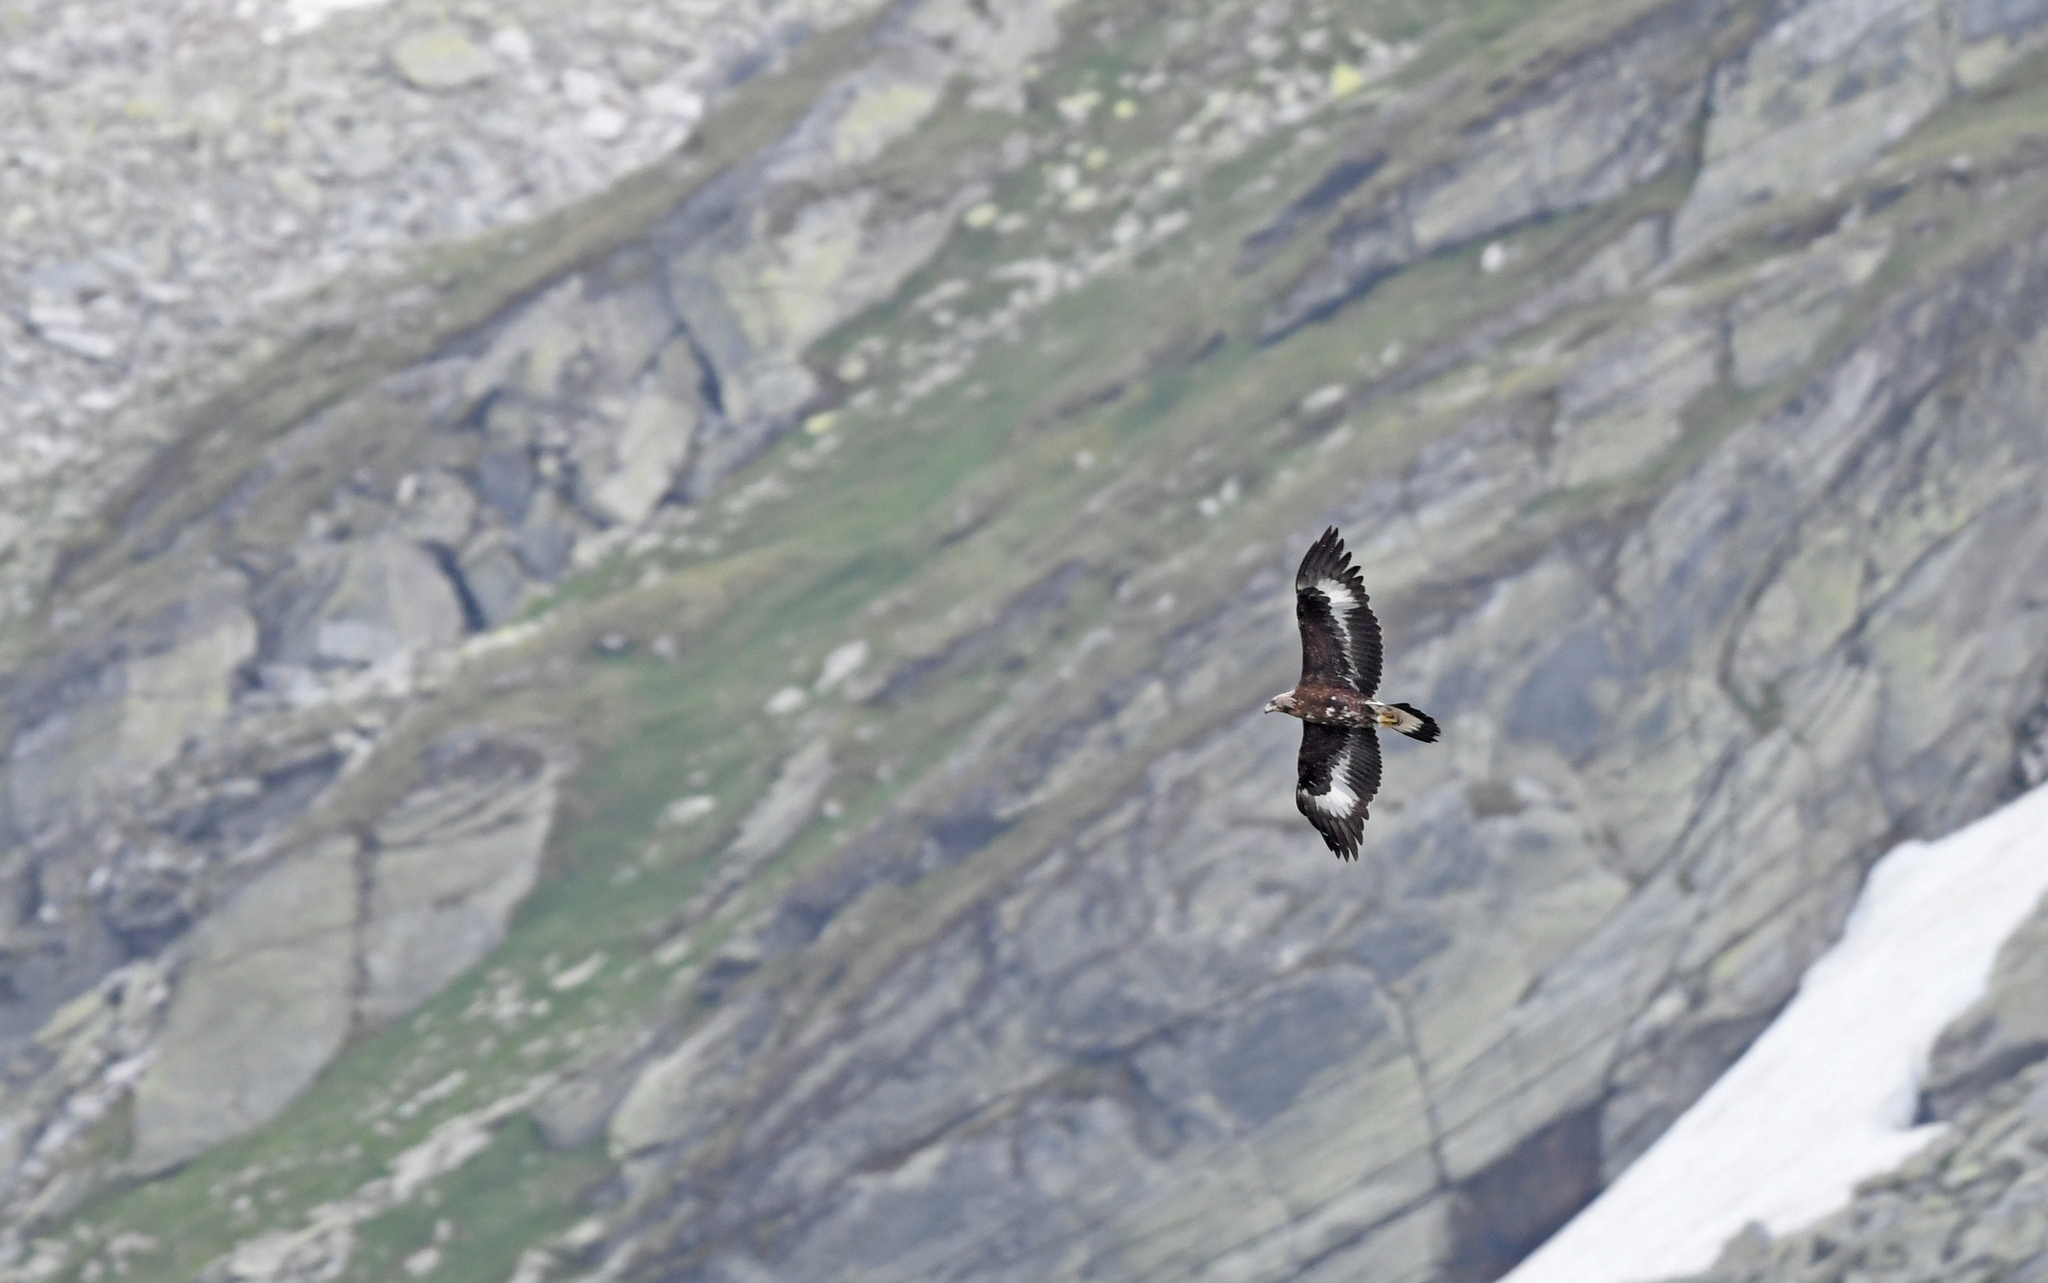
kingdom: Animalia
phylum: Chordata
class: Aves
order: Accipitriformes
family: Accipitridae
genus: Aquila
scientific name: Aquila chrysaetos
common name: Golden eagle
